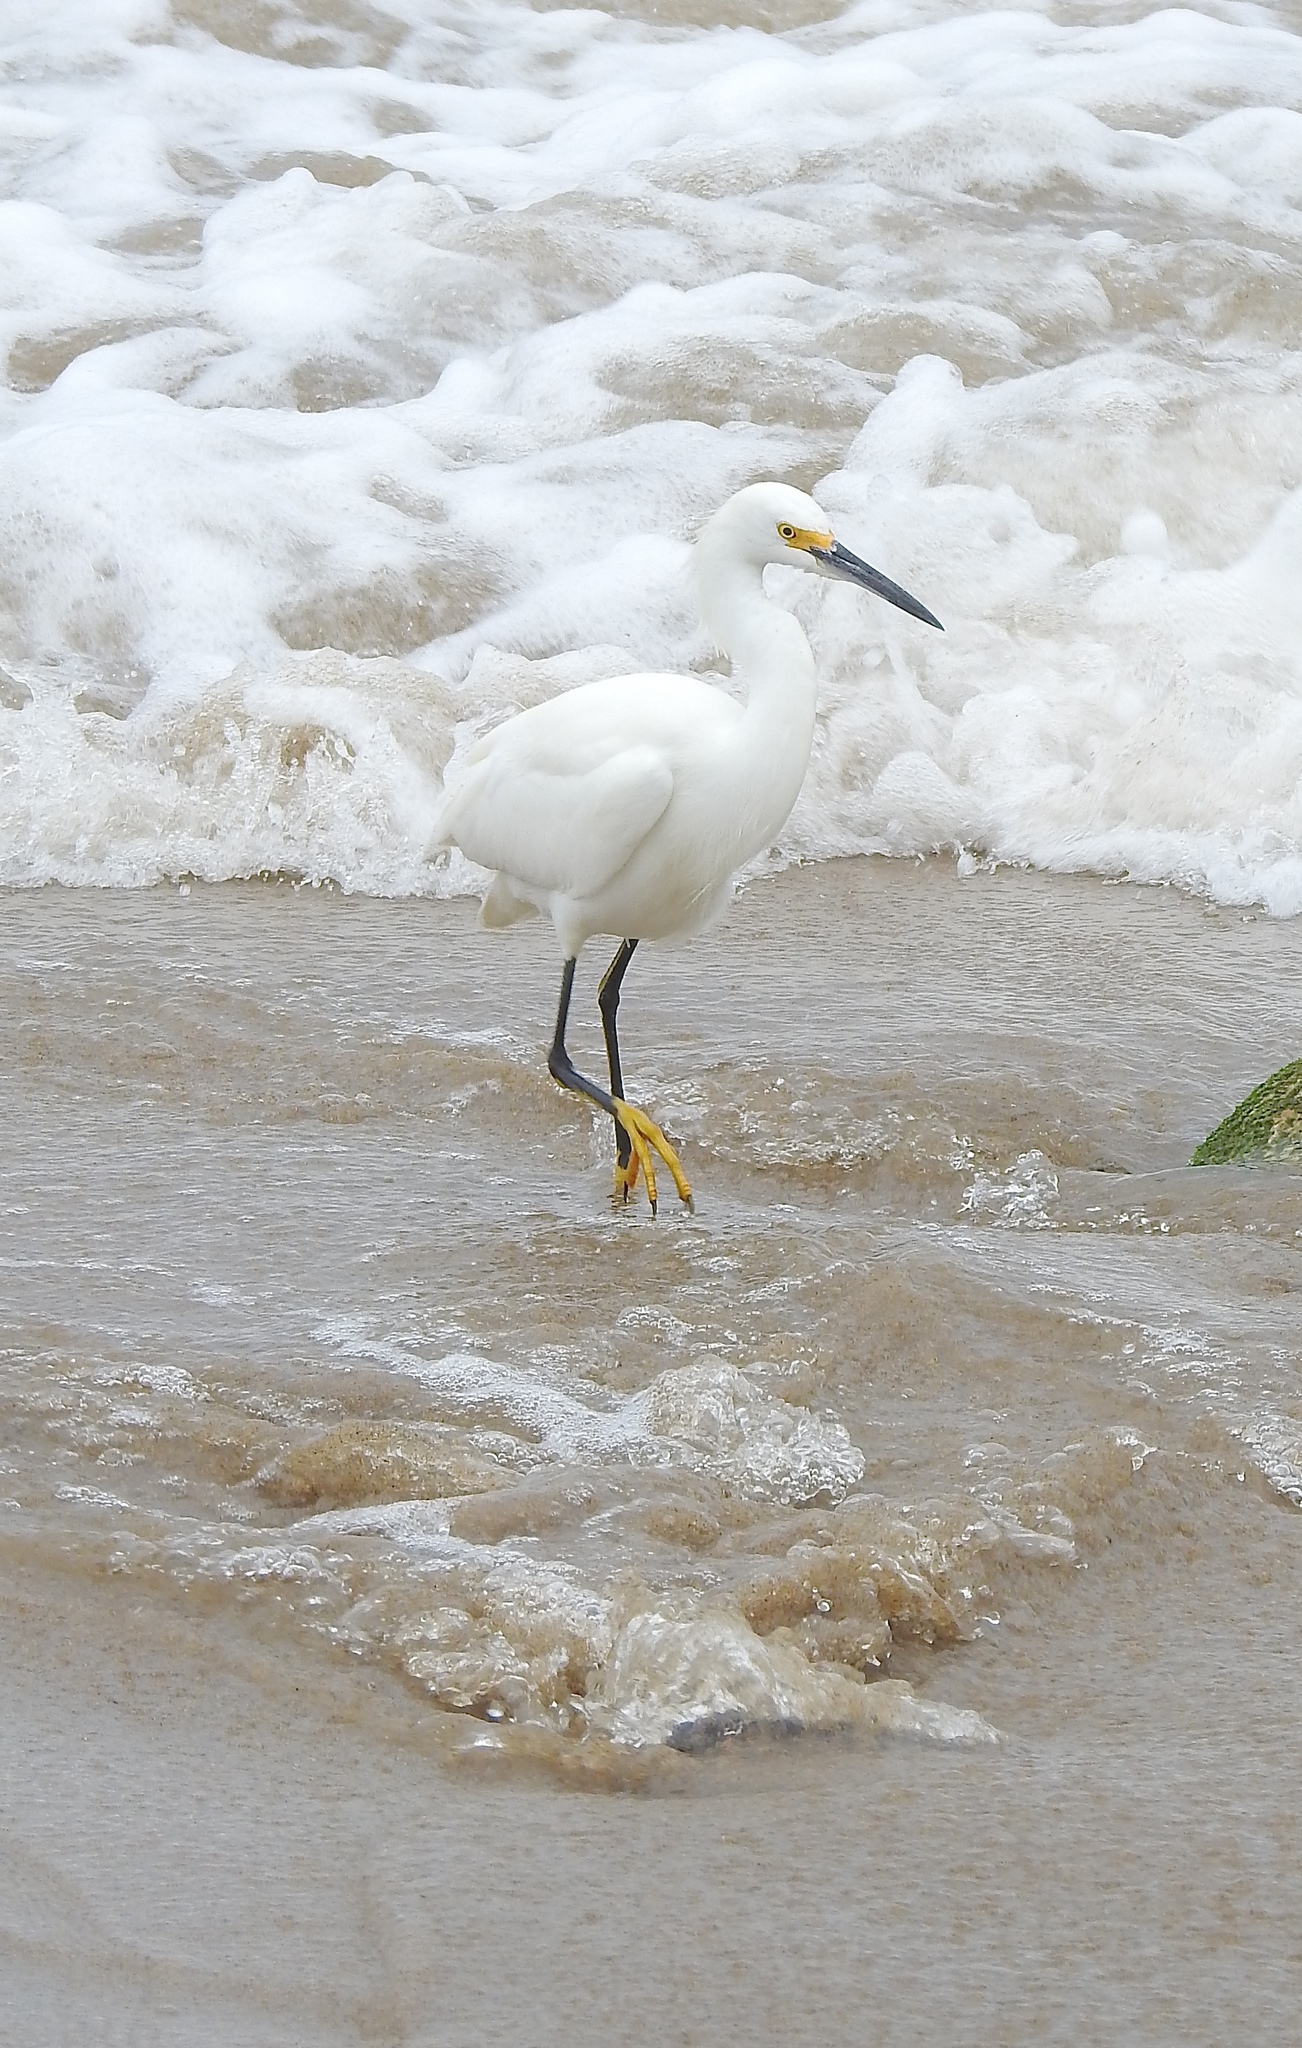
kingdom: Animalia
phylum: Chordata
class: Aves
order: Pelecaniformes
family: Ardeidae
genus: Egretta
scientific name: Egretta thula
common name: Snowy egret
